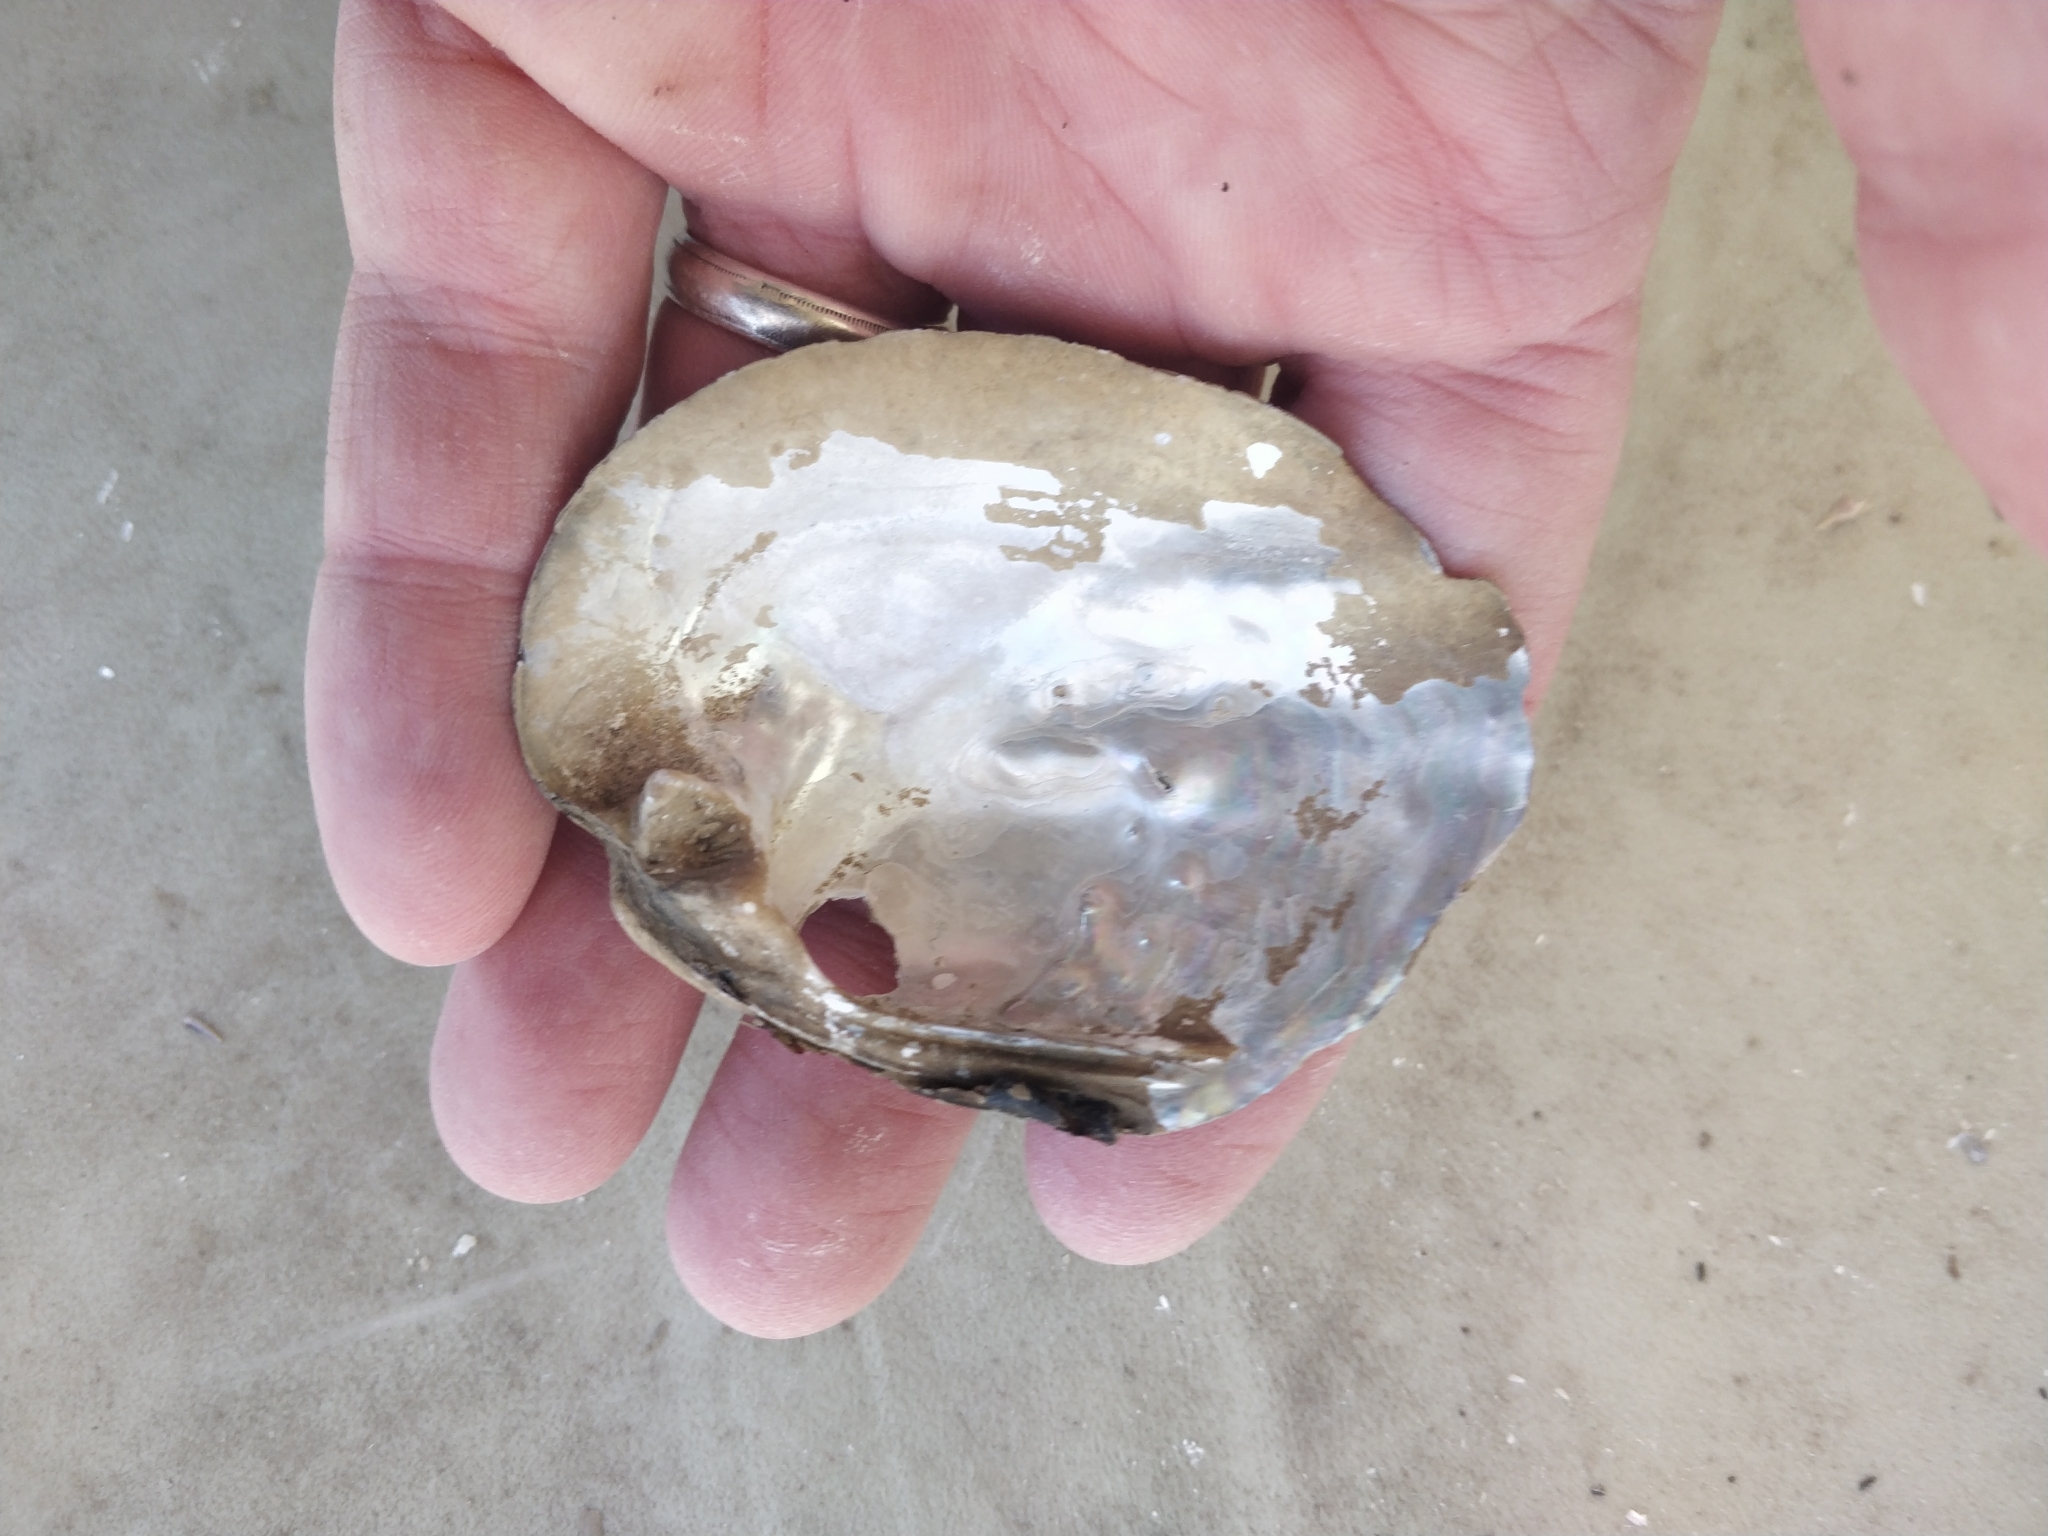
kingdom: Animalia
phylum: Mollusca
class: Bivalvia
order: Unionida
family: Unionidae
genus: Amblema
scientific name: Amblema plicata
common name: Threeridge
